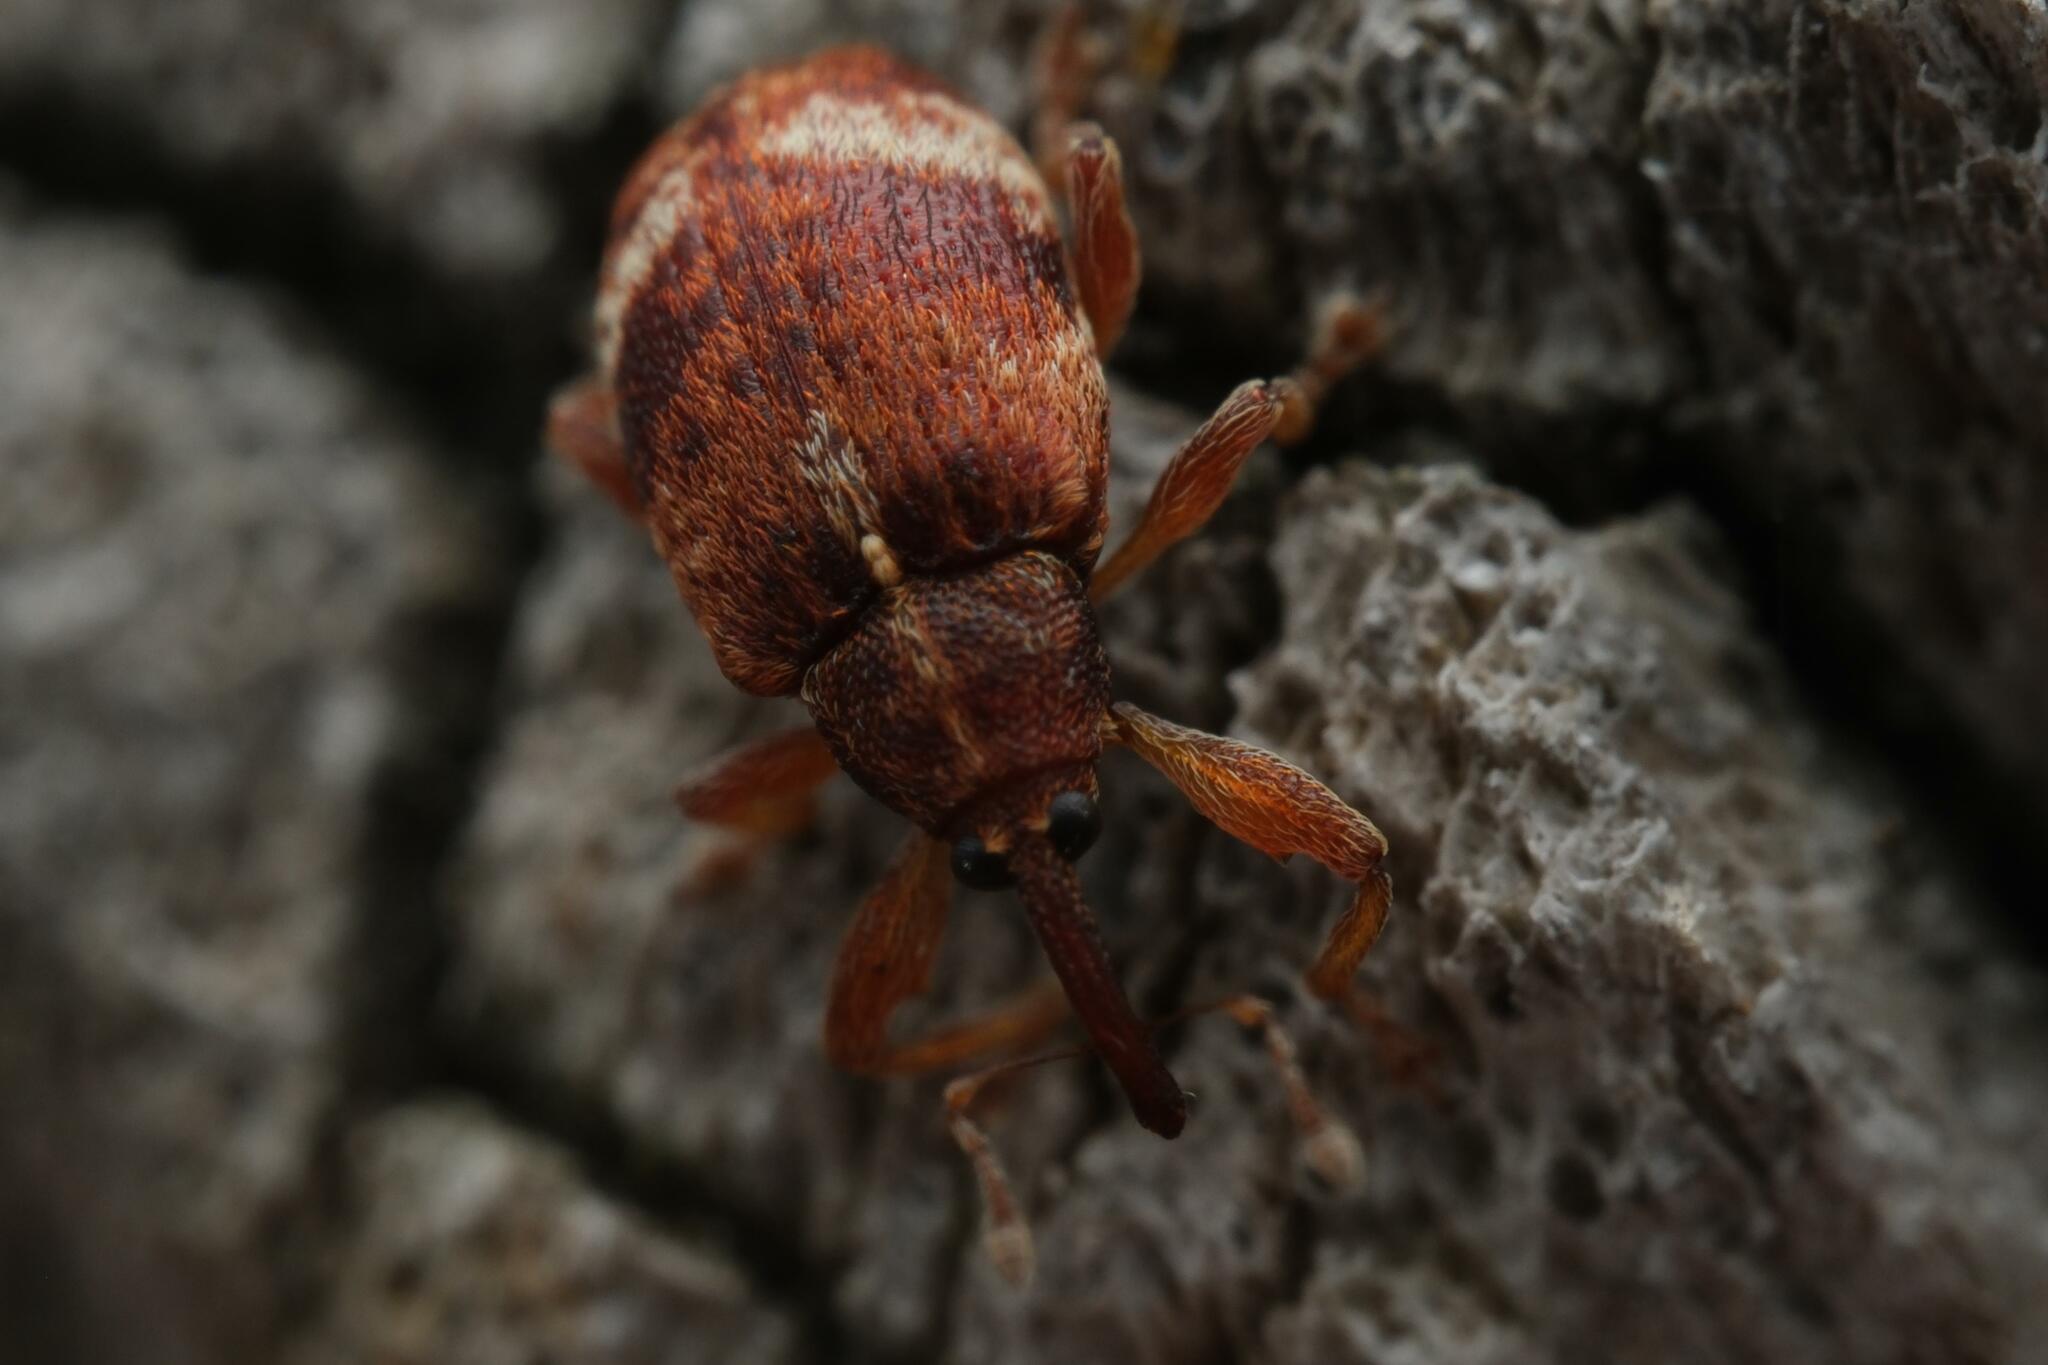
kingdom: Animalia
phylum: Arthropoda
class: Insecta
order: Coleoptera
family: Curculionidae
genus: Anthonomus
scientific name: Anthonomus pedicularius
